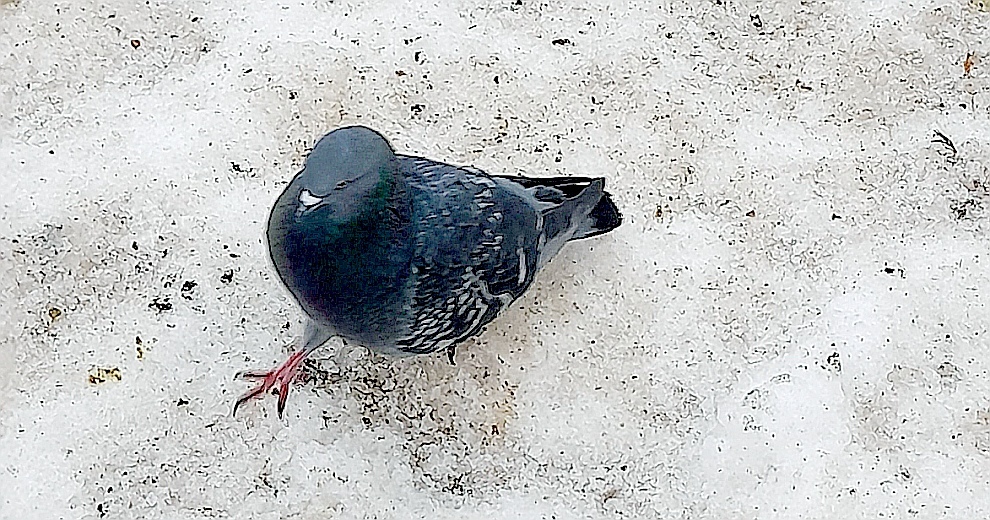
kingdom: Animalia
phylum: Chordata
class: Aves
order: Columbiformes
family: Columbidae
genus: Columba
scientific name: Columba livia
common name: Rock pigeon
